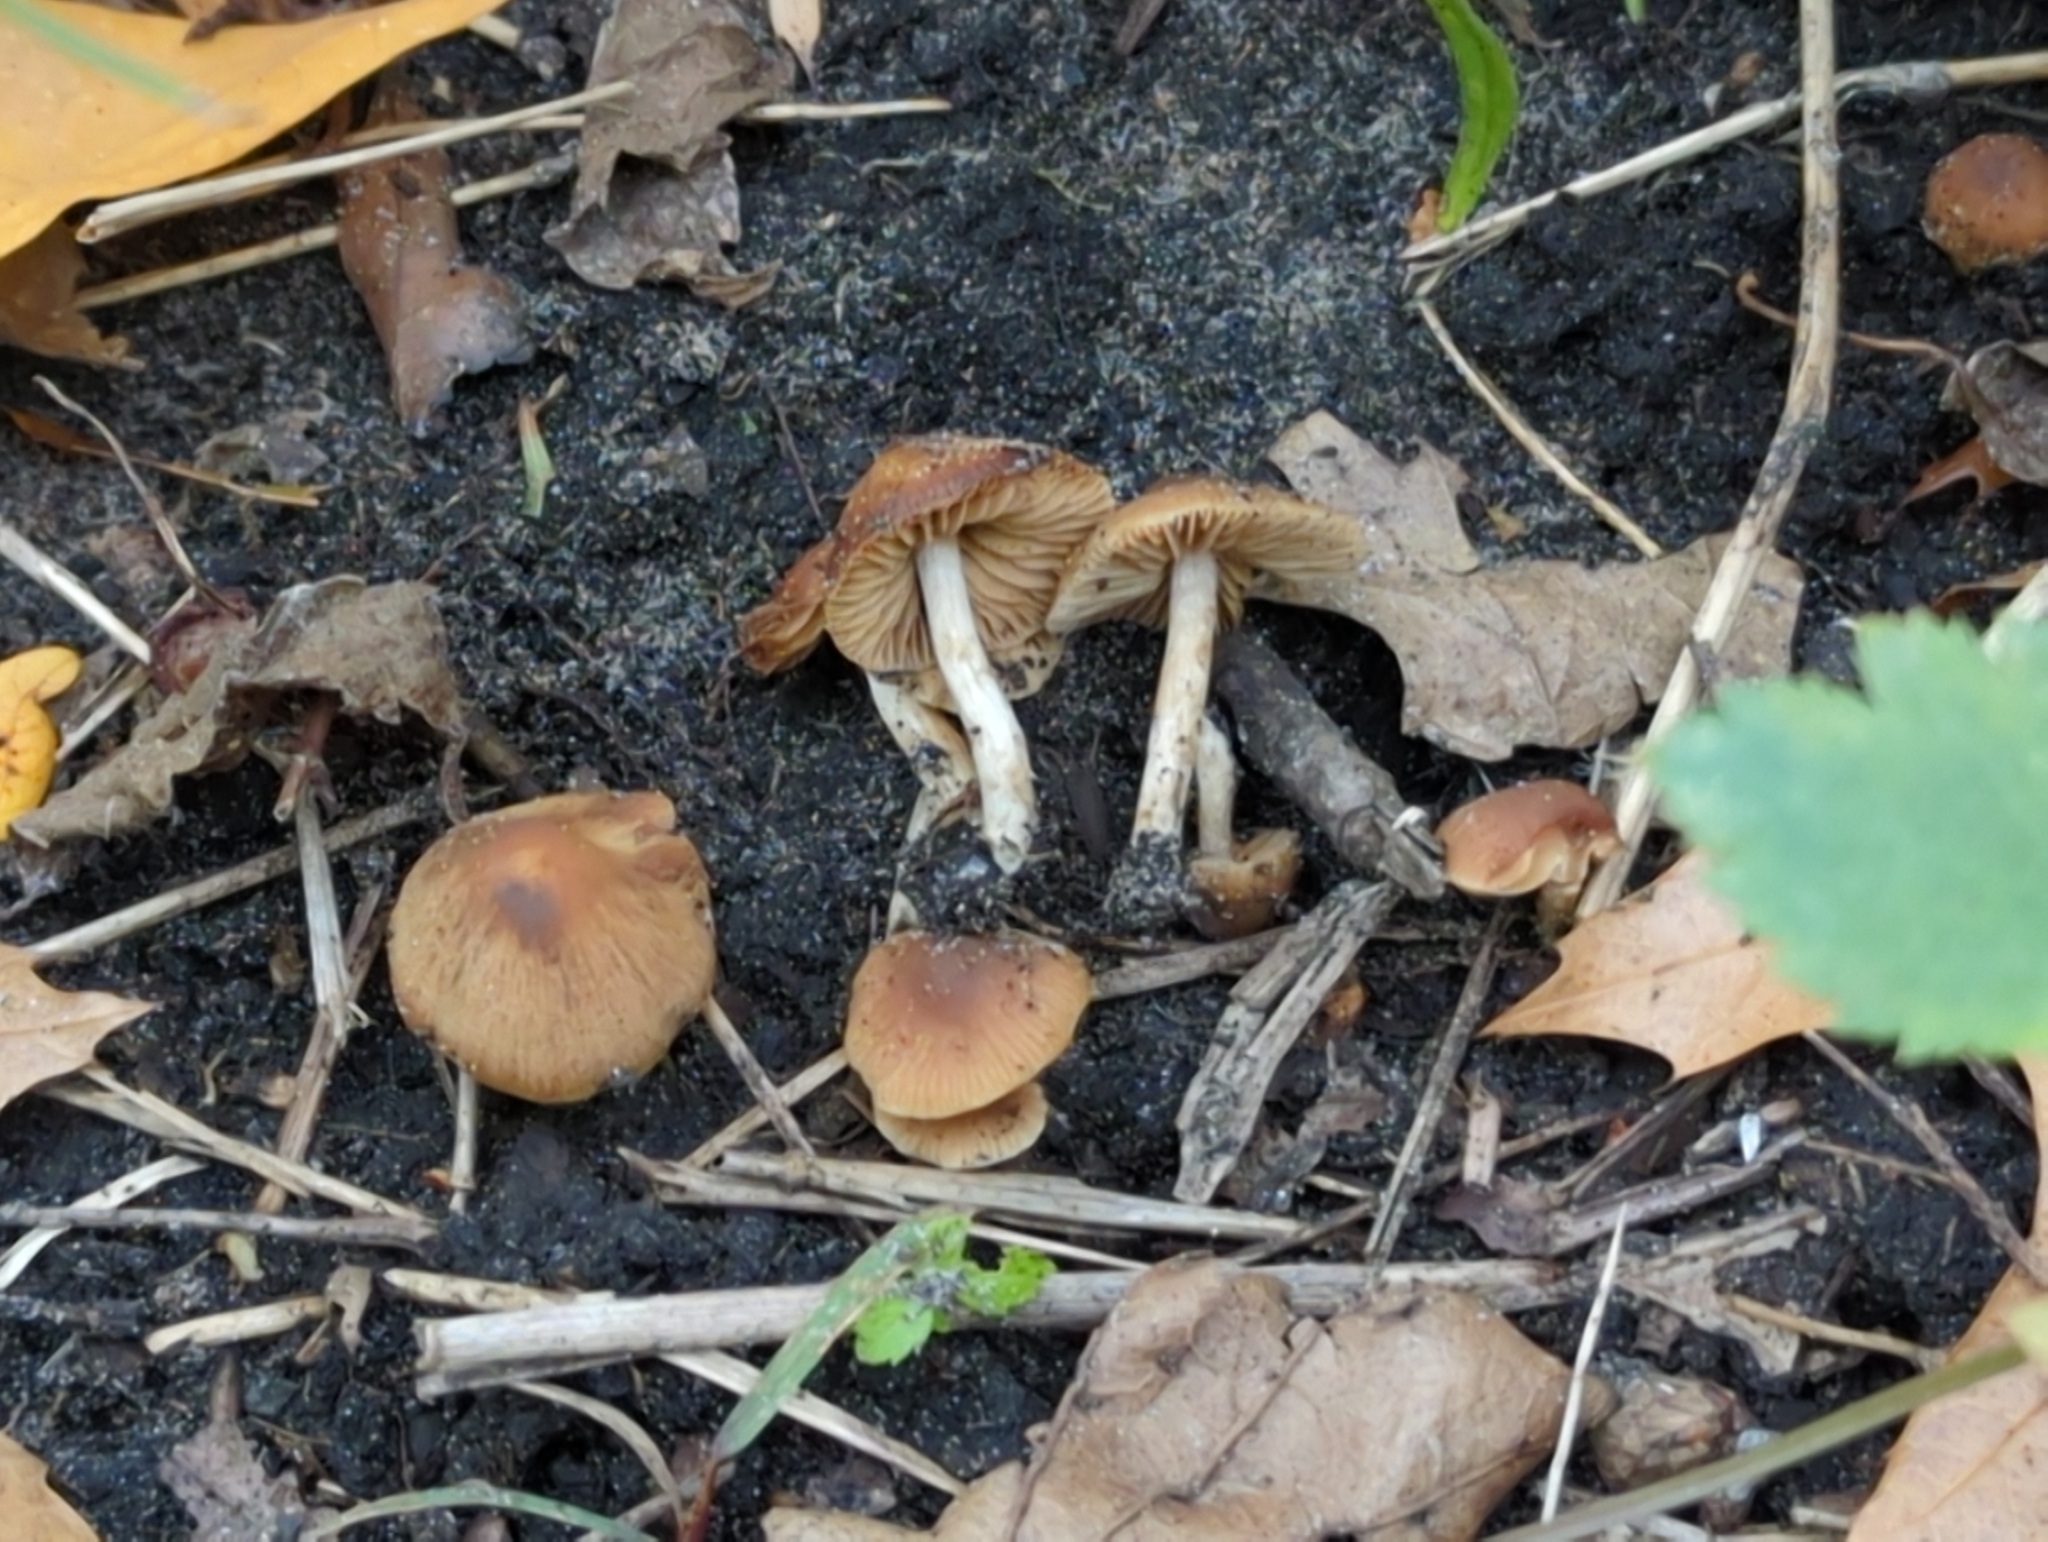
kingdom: Fungi
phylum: Basidiomycota
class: Agaricomycetes
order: Agaricales
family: Hymenogastraceae
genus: Naucoria
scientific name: Naucoria salicis
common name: Willow aldercap
